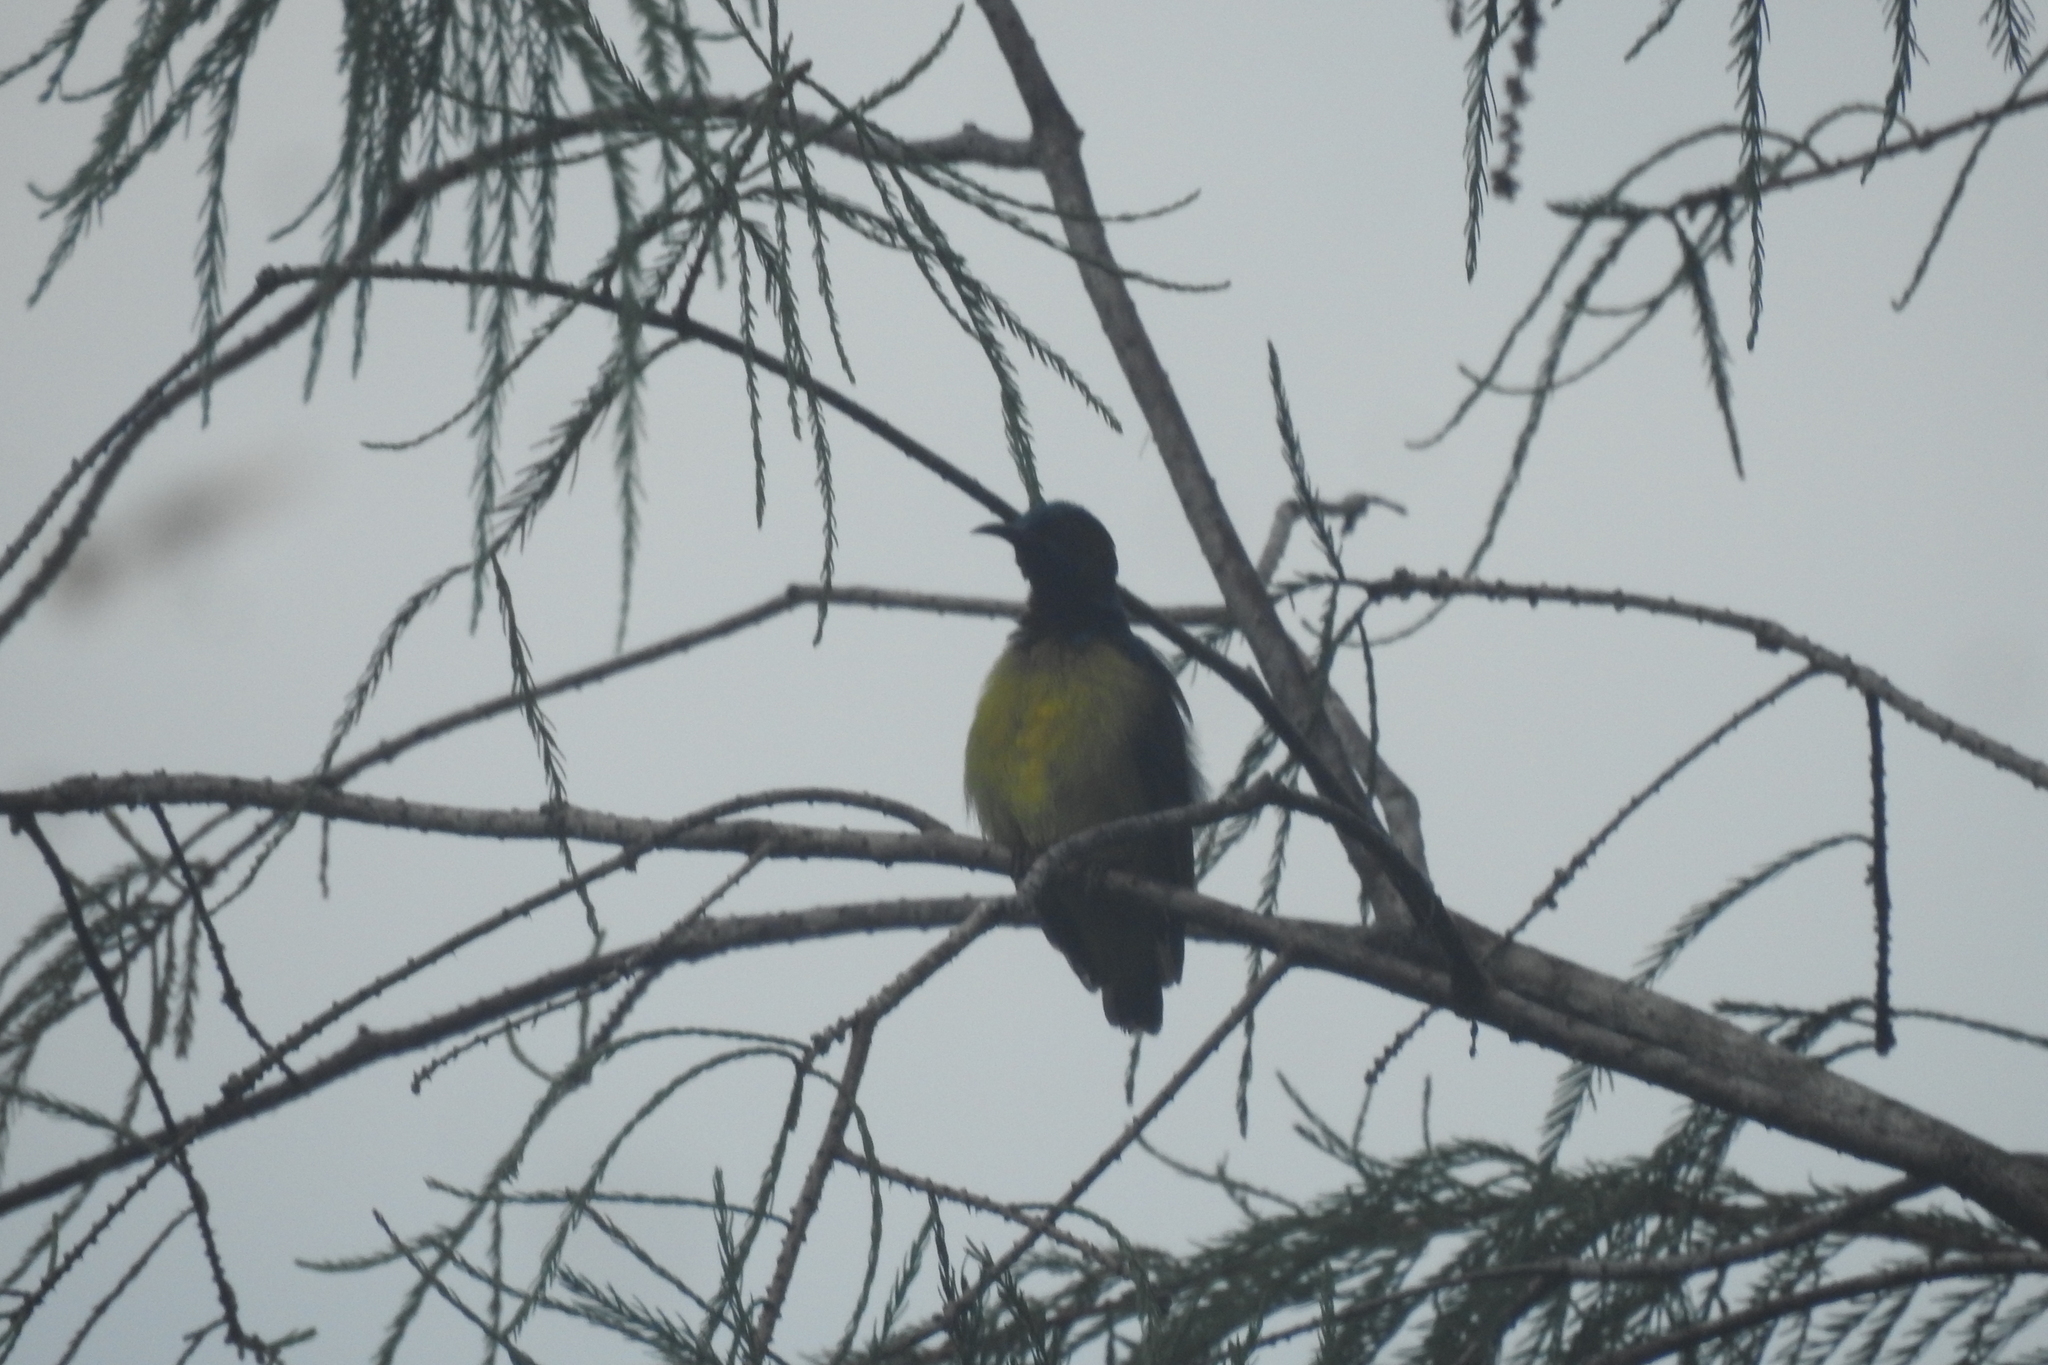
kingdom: Animalia
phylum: Chordata
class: Aves
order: Passeriformes
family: Nectariniidae
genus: Anthreptes
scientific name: Anthreptes malacensis
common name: Brown-throated sunbird
